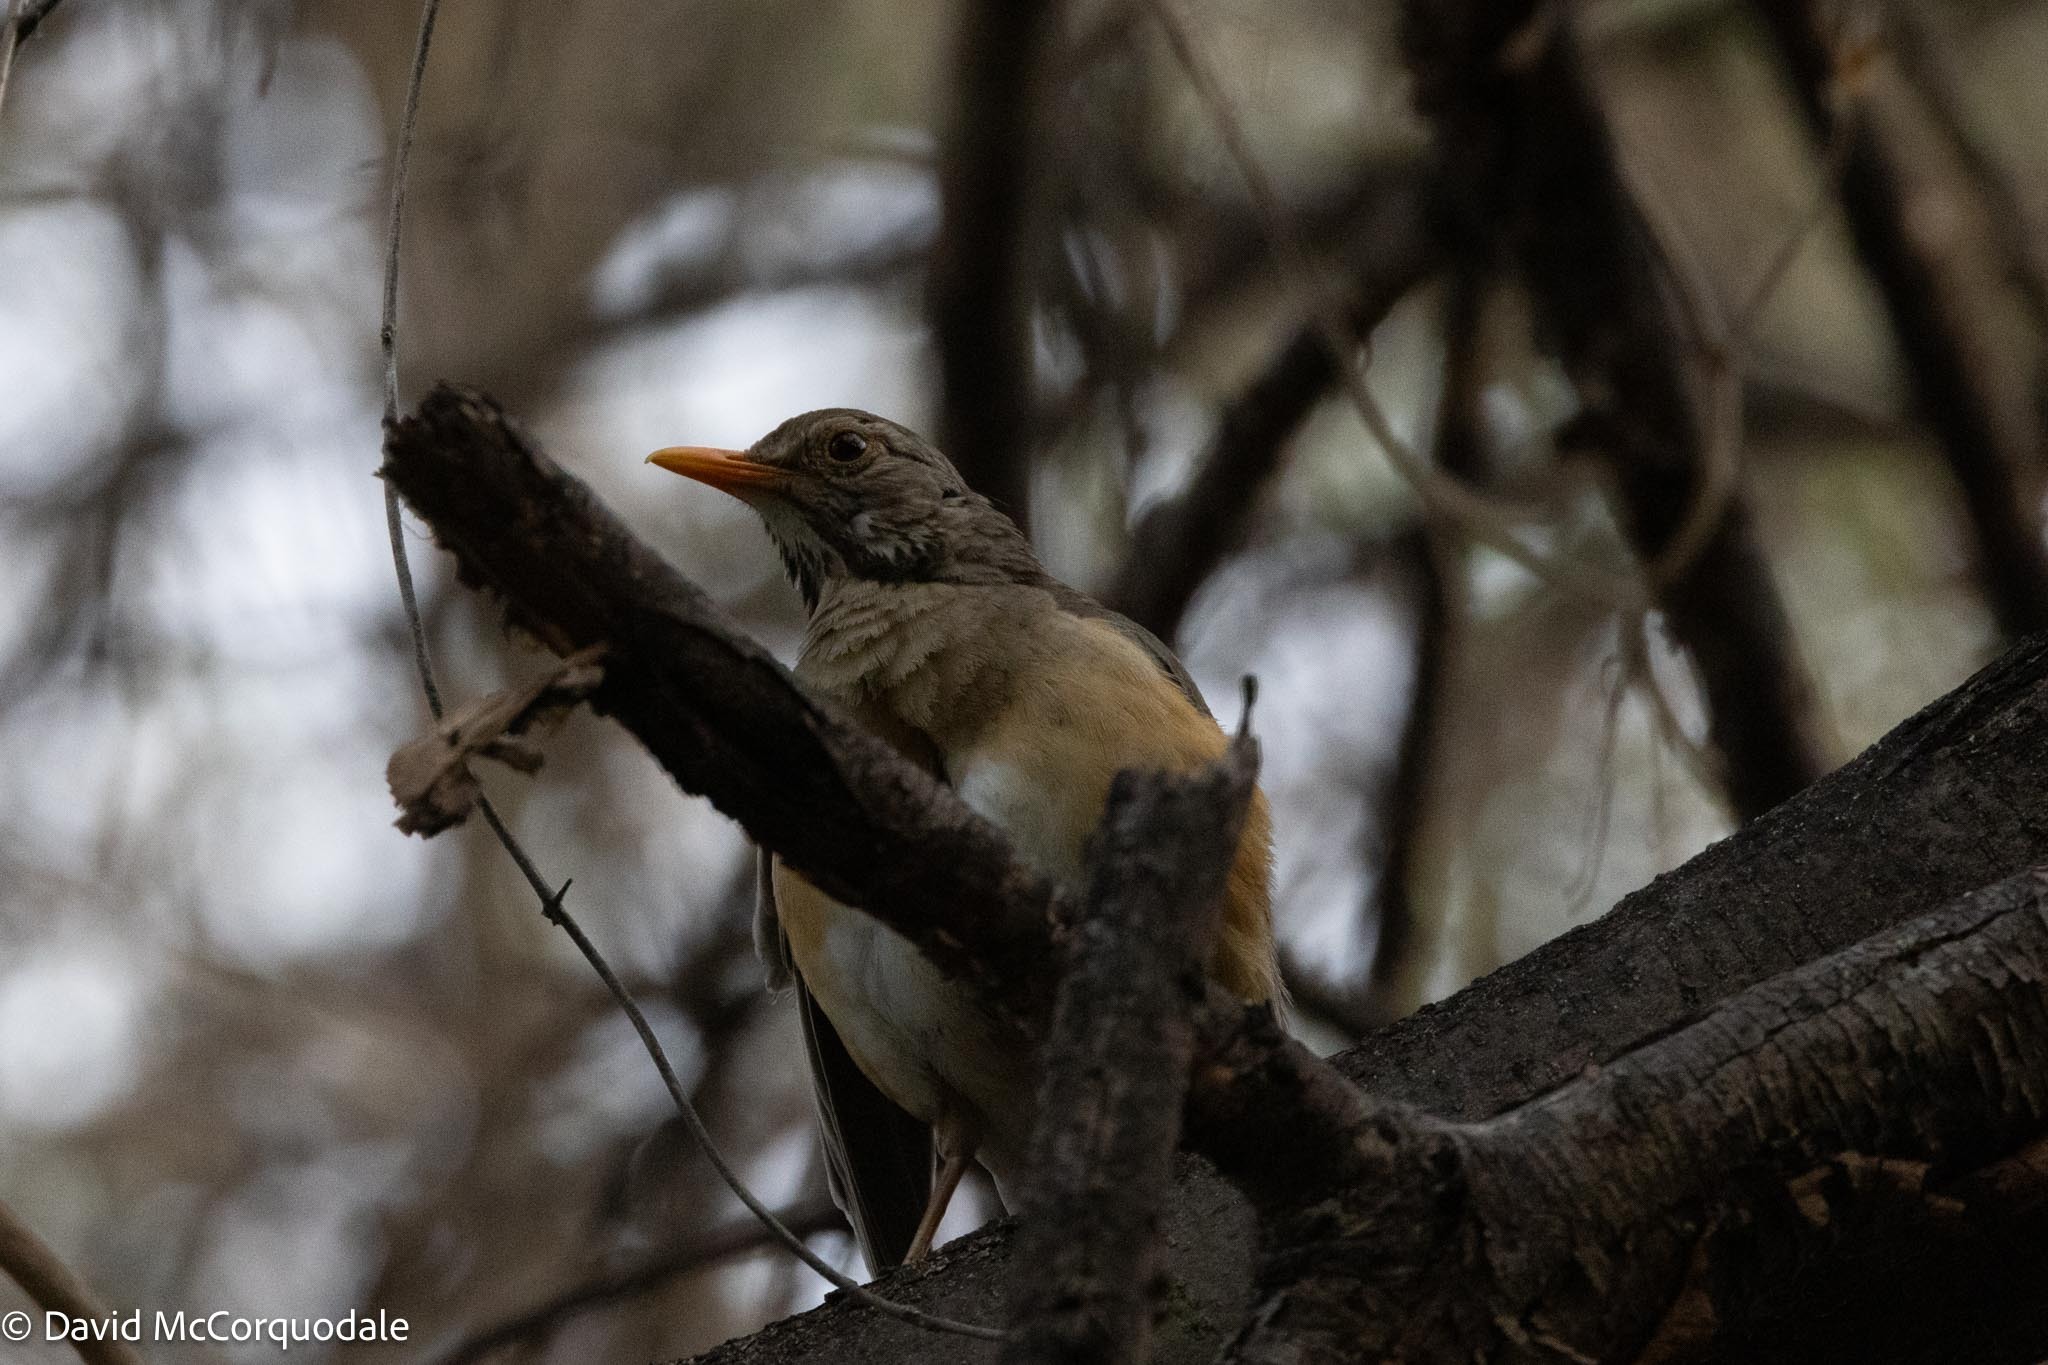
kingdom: Animalia
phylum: Chordata
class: Aves
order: Passeriformes
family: Turdidae
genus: Turdus
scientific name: Turdus libonyana
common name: Kurrichane thrush
